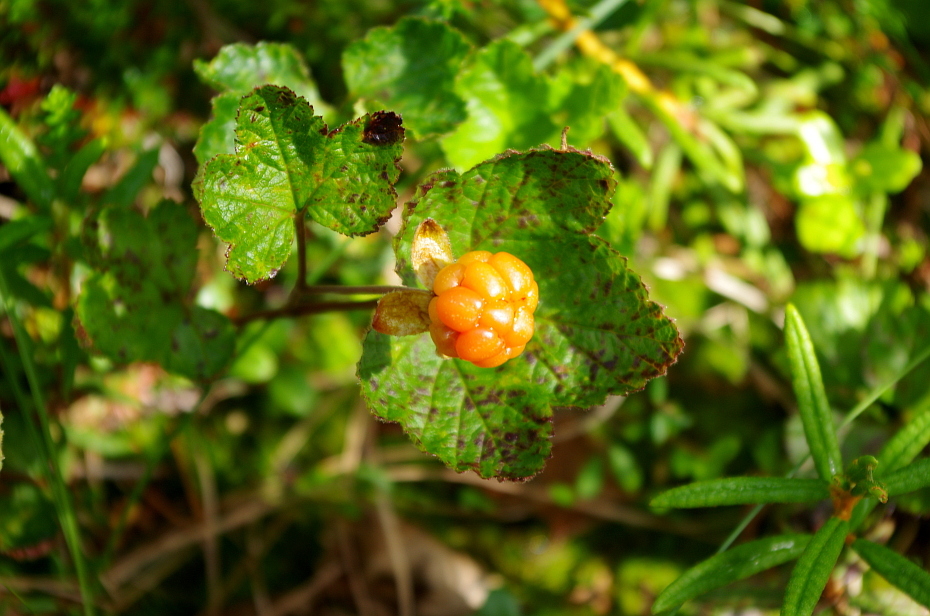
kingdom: Plantae
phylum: Tracheophyta
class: Magnoliopsida
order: Rosales
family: Rosaceae
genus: Rubus
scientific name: Rubus chamaemorus
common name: Cloudberry
